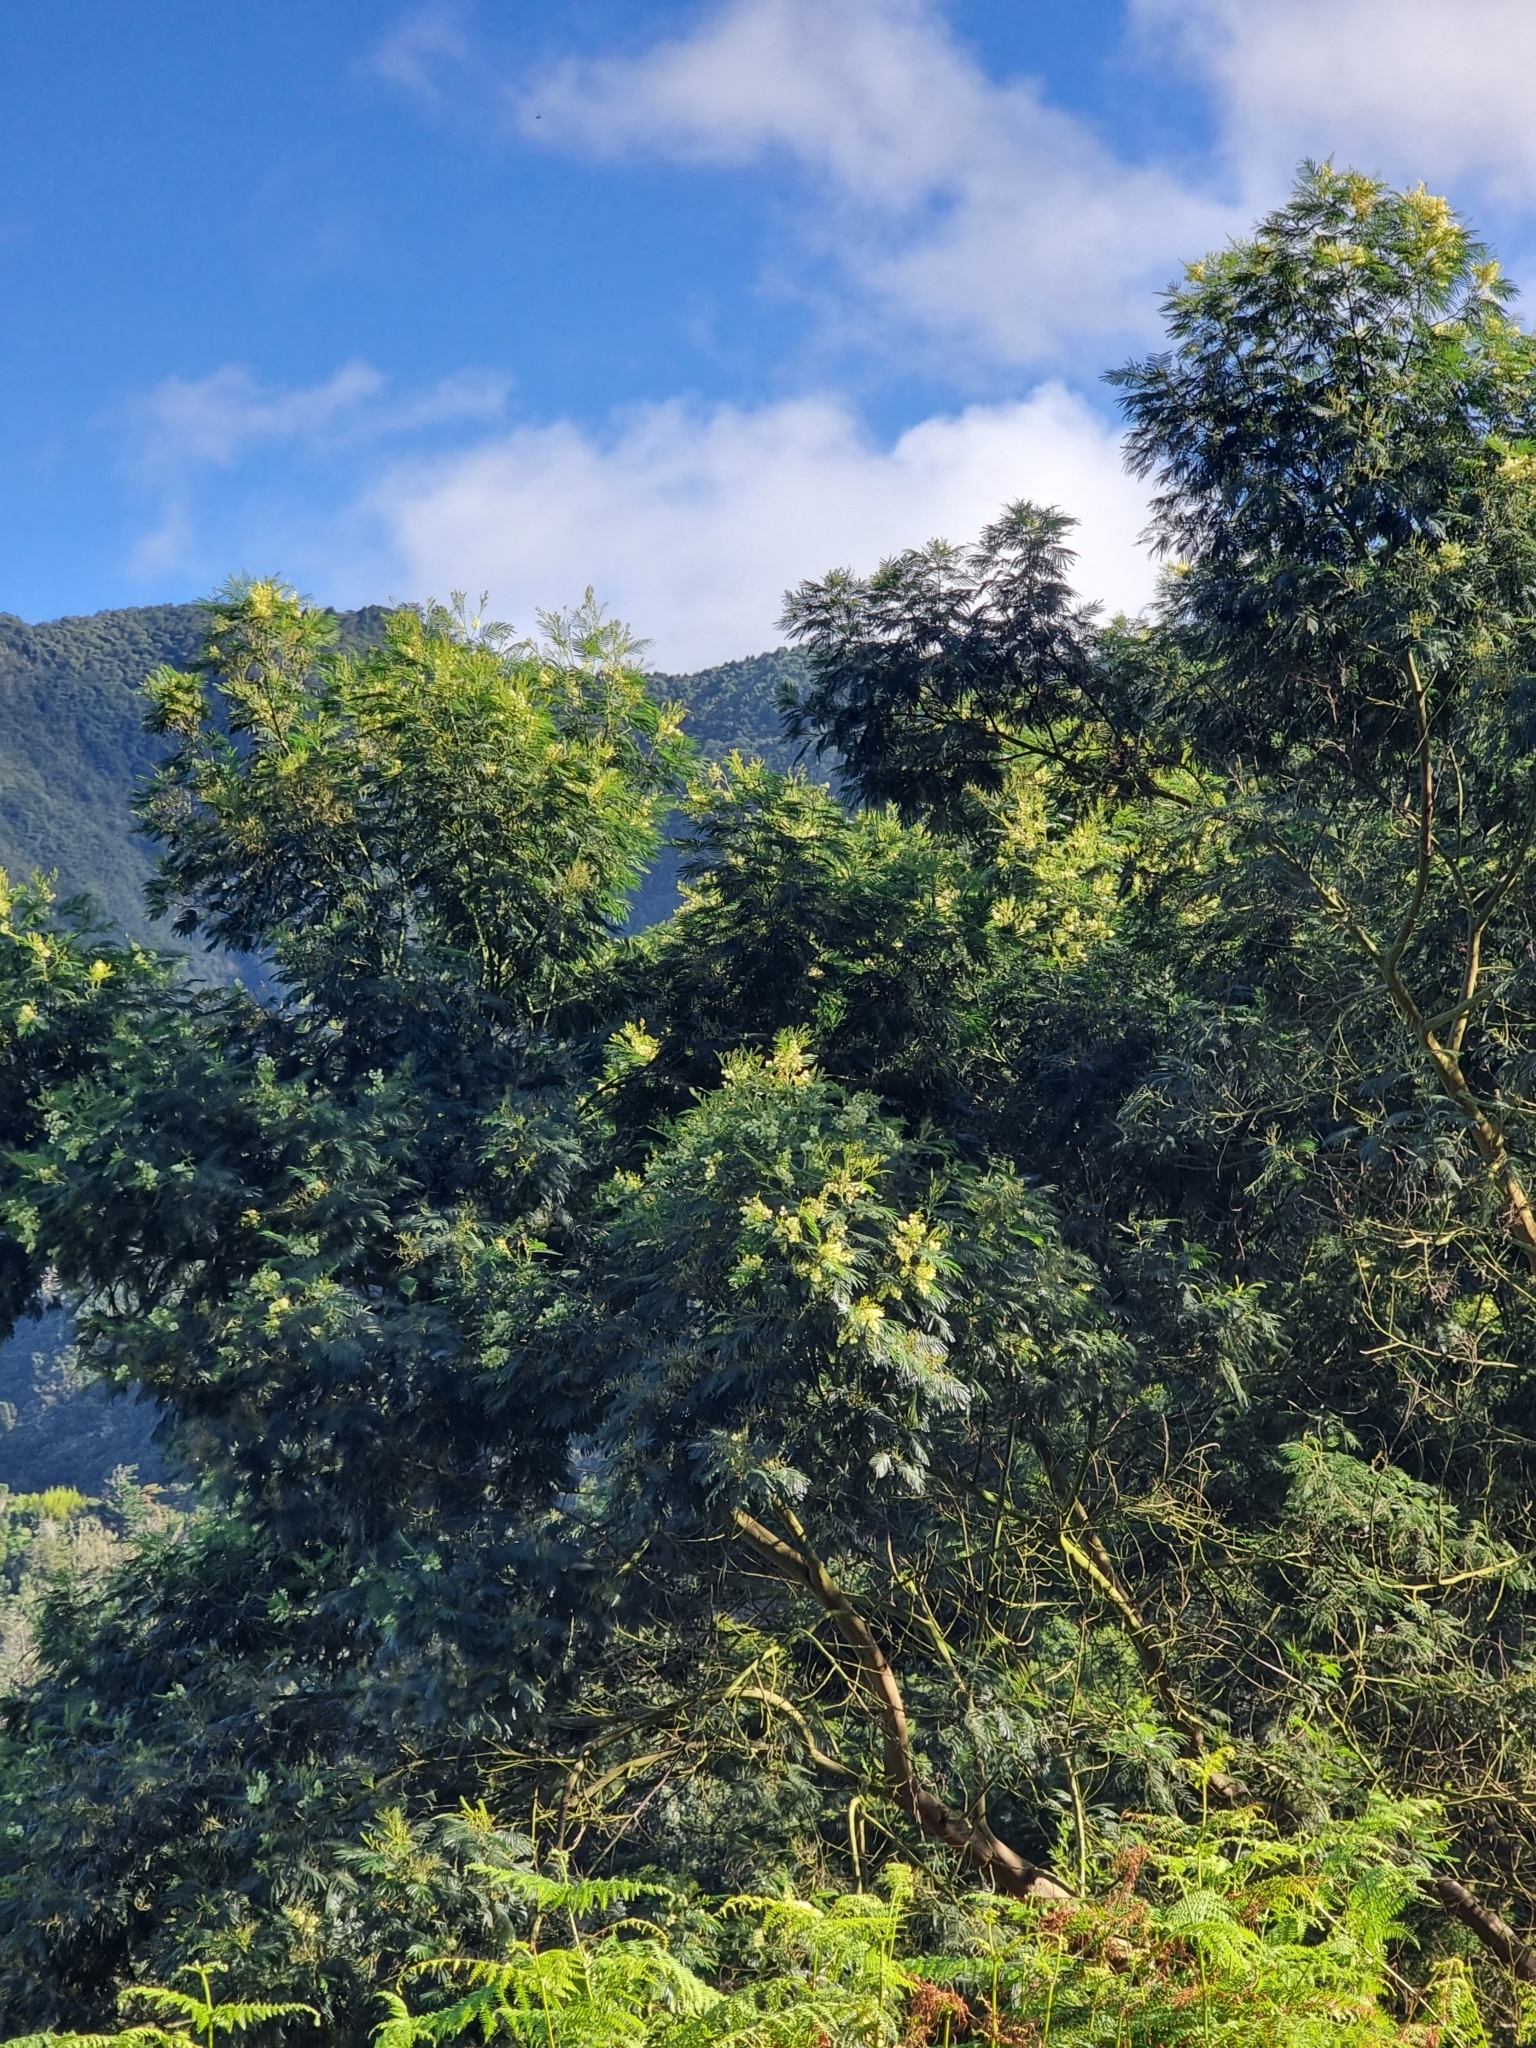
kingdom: Plantae
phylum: Tracheophyta
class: Magnoliopsida
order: Fabales
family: Fabaceae
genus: Acacia
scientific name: Acacia mearnsii
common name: Black wattle
